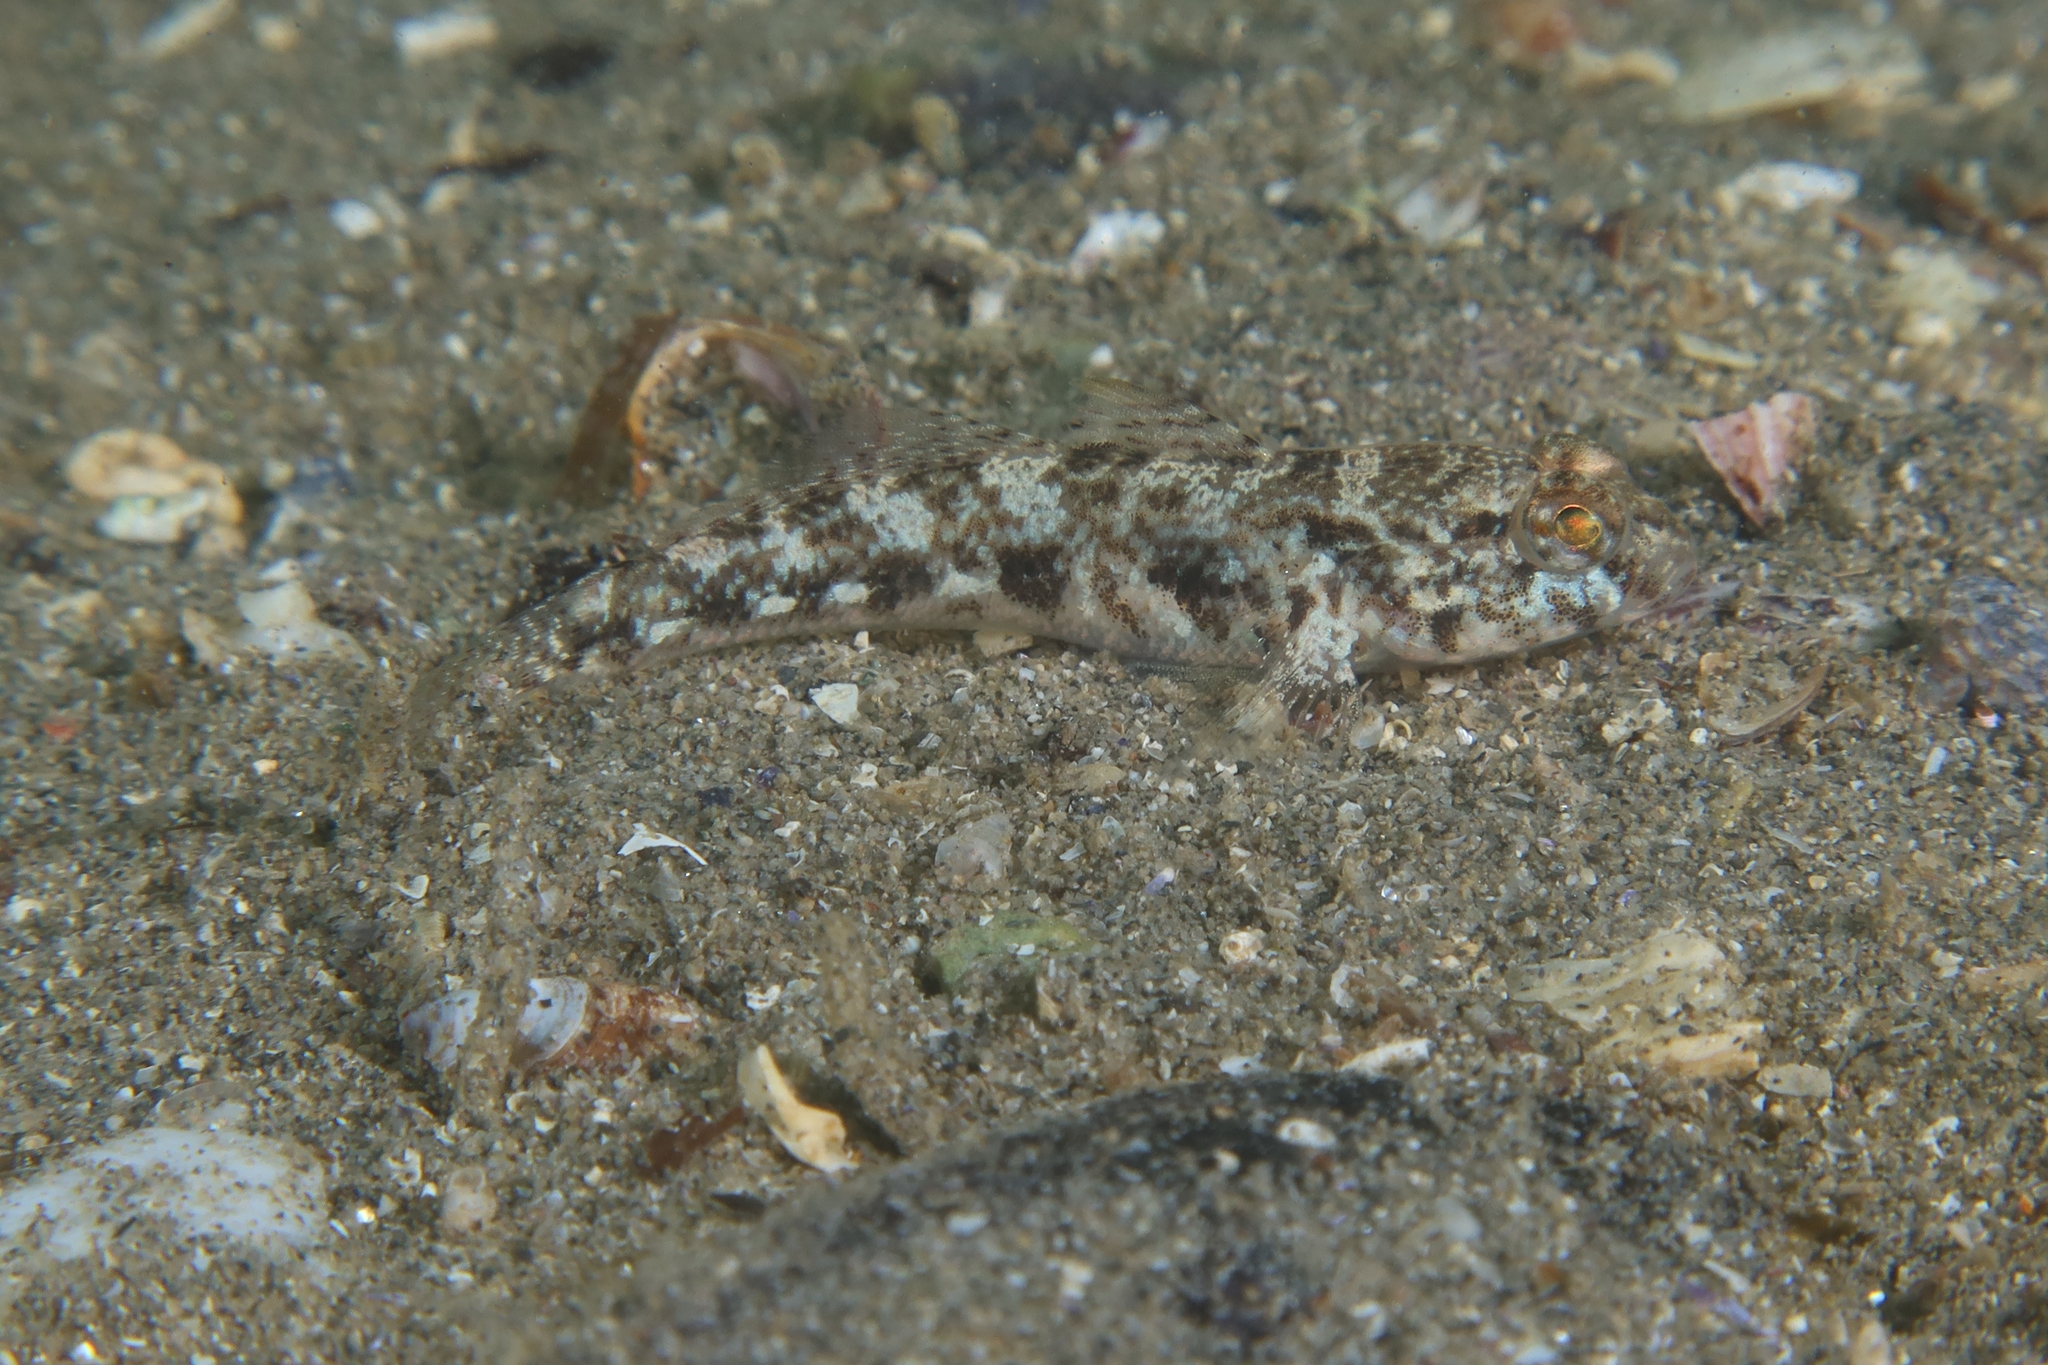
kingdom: Animalia
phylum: Chordata
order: Perciformes
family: Gobiidae
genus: Gobius
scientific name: Gobius niger
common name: Black goby
